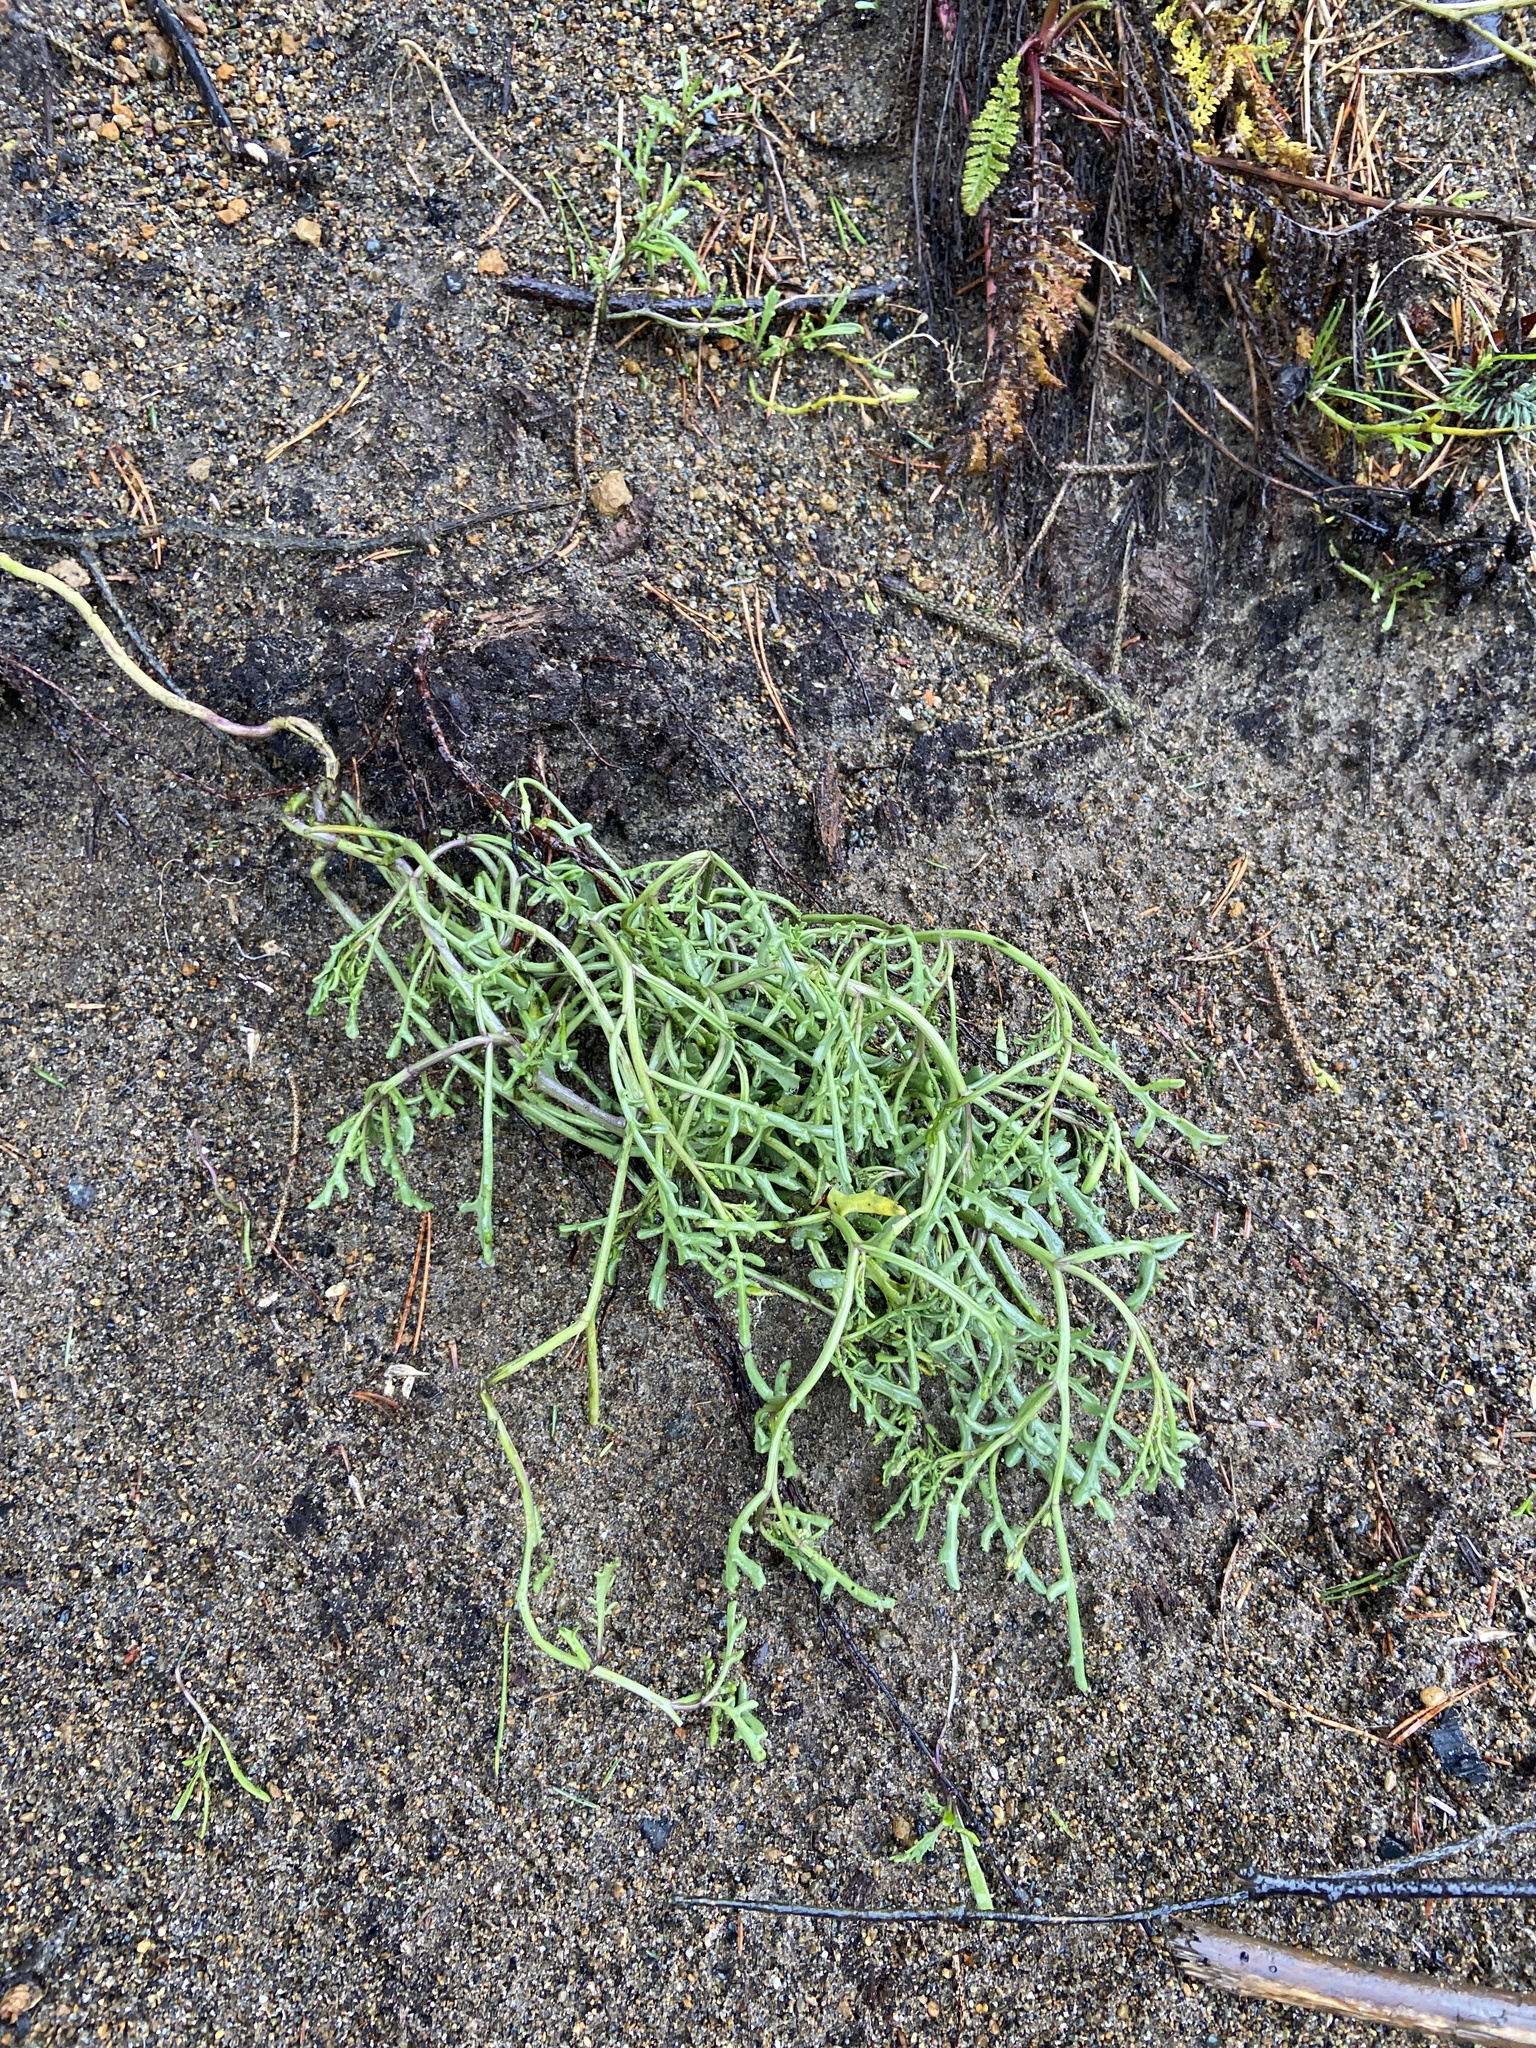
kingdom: Plantae
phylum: Tracheophyta
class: Magnoliopsida
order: Brassicales
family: Brassicaceae
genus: Cakile
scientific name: Cakile maritima
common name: Sea rocket
